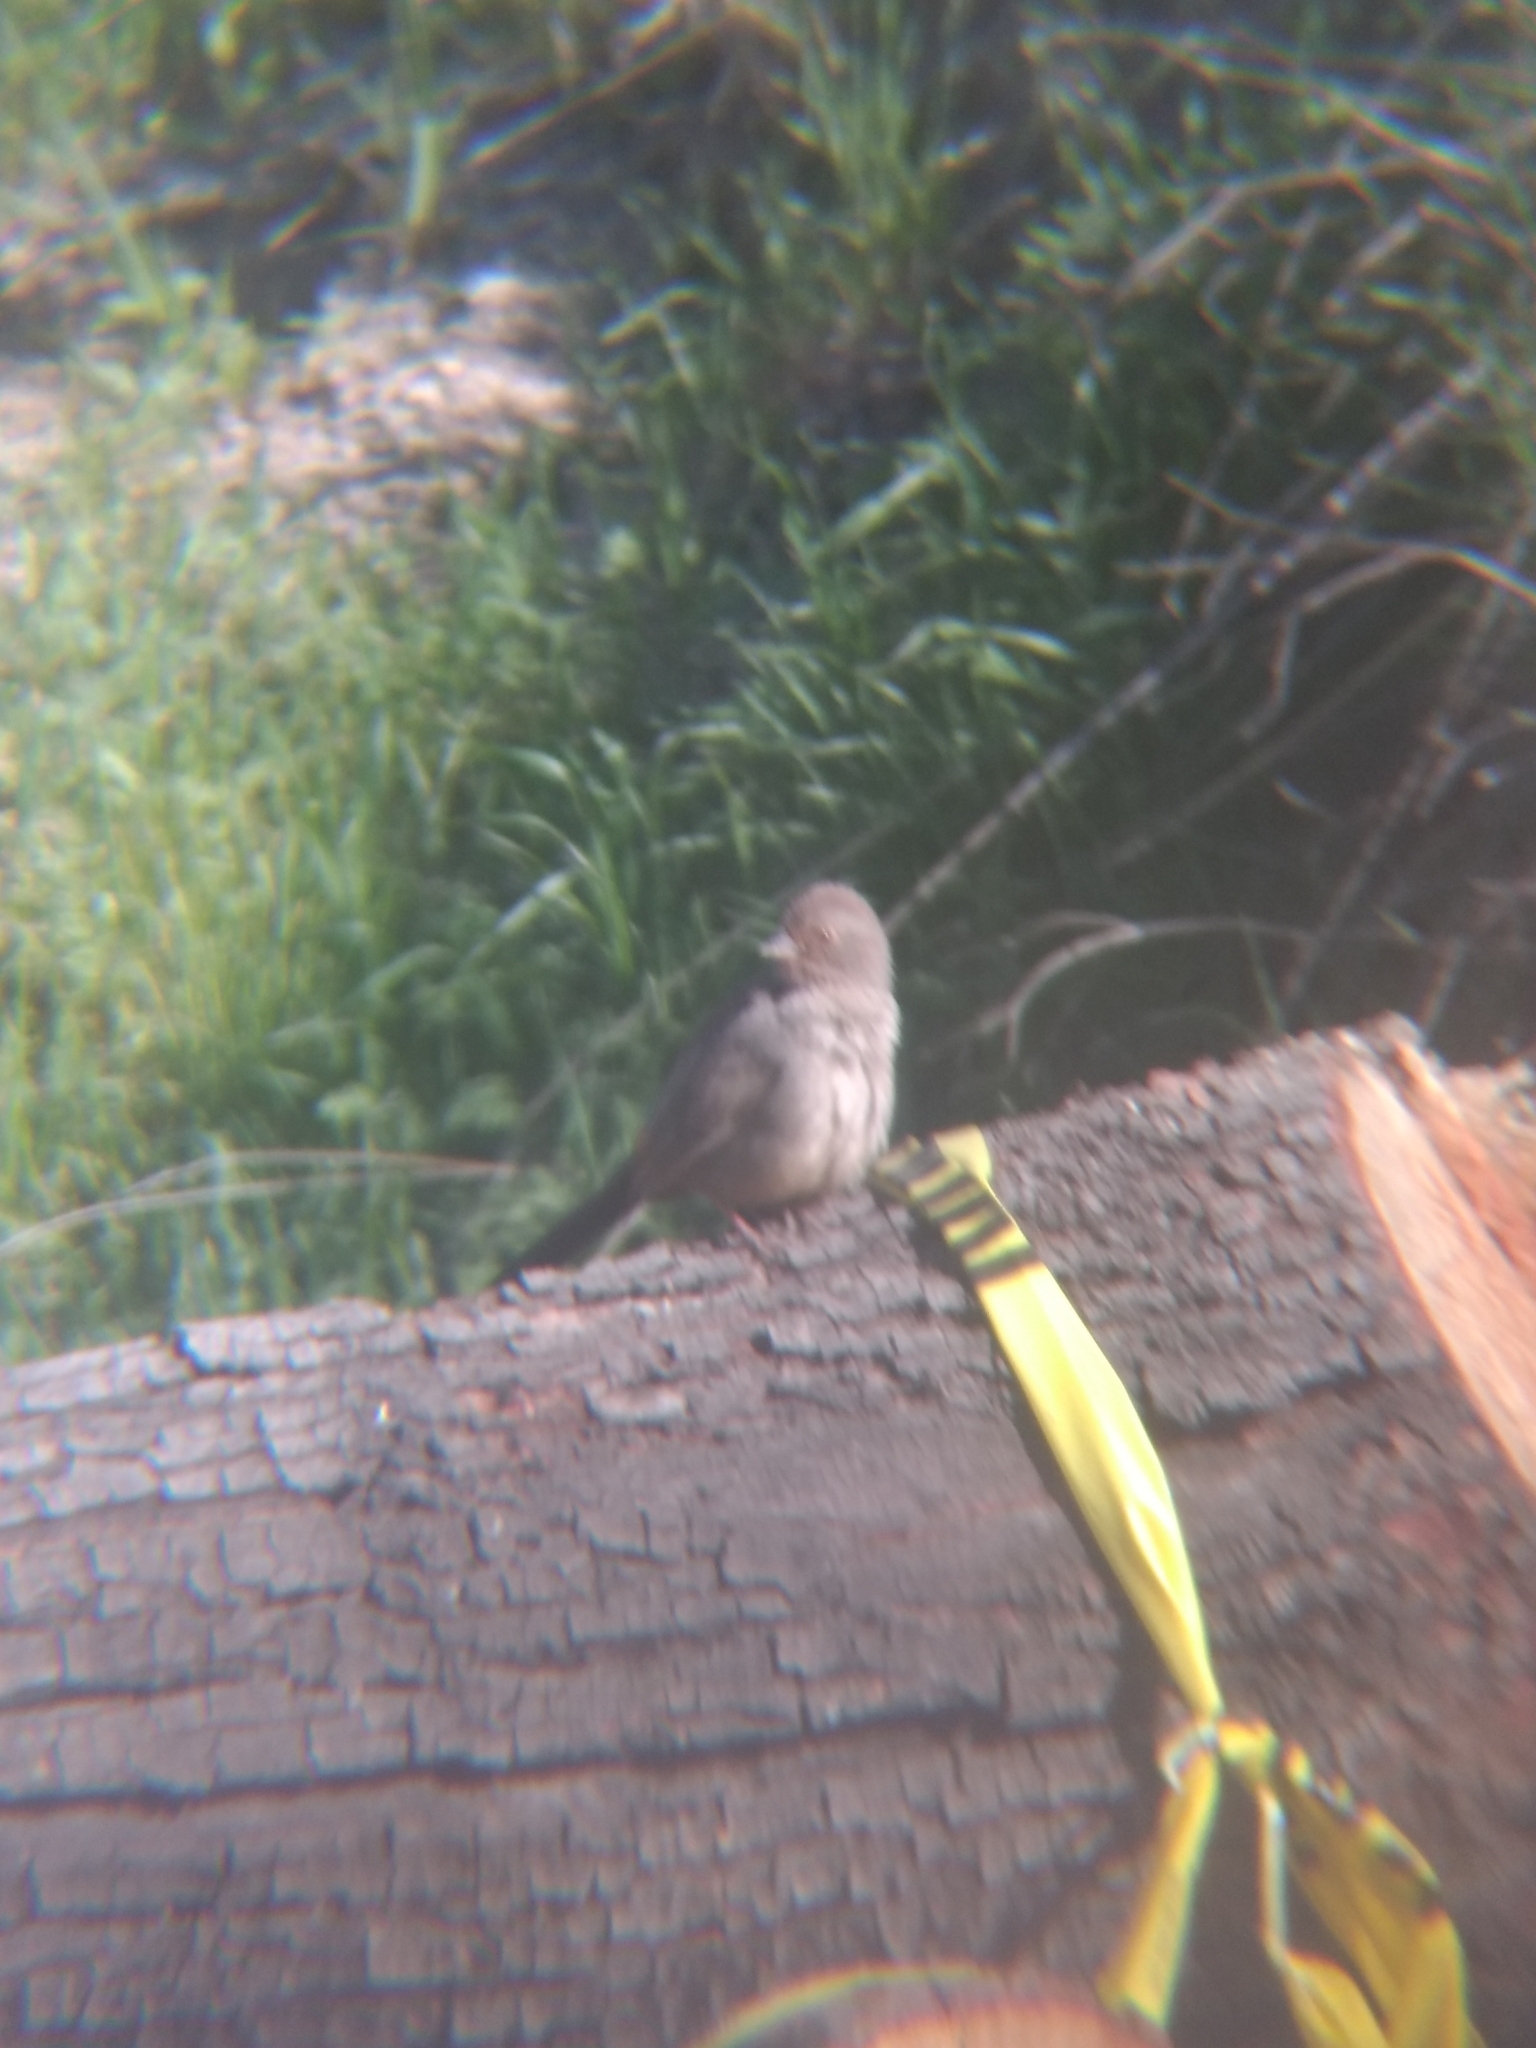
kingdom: Animalia
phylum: Chordata
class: Aves
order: Passeriformes
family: Passerellidae
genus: Melozone
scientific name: Melozone crissalis
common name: California towhee
